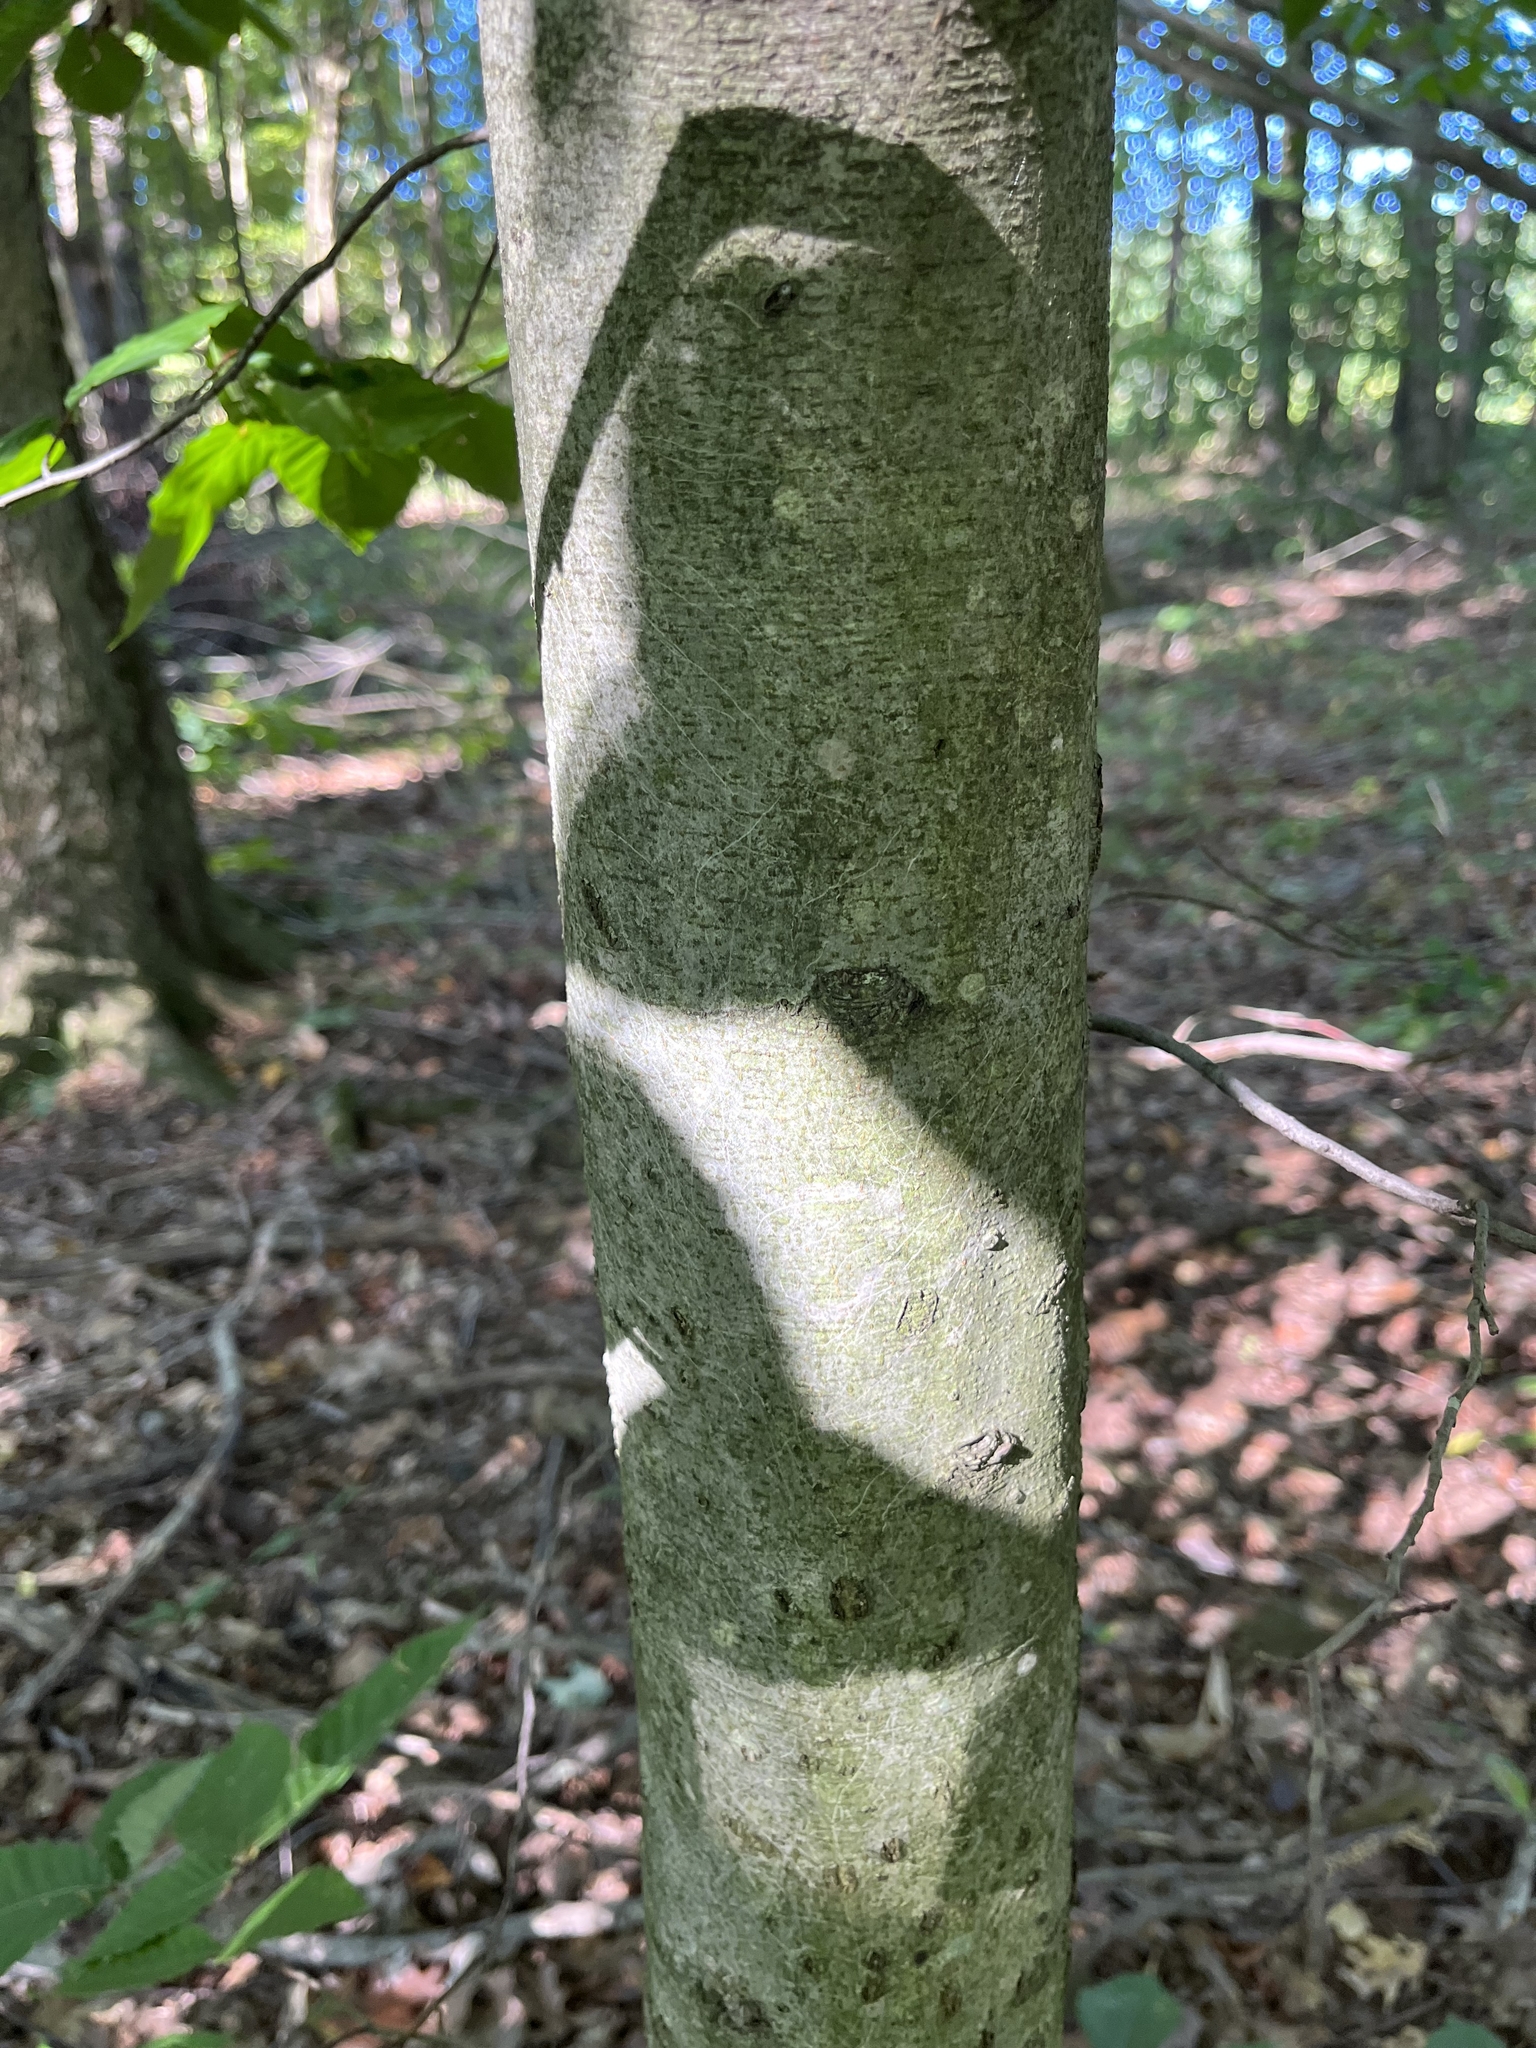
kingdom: Plantae
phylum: Tracheophyta
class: Magnoliopsida
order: Fagales
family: Fagaceae
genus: Fagus
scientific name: Fagus grandifolia
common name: American beech
